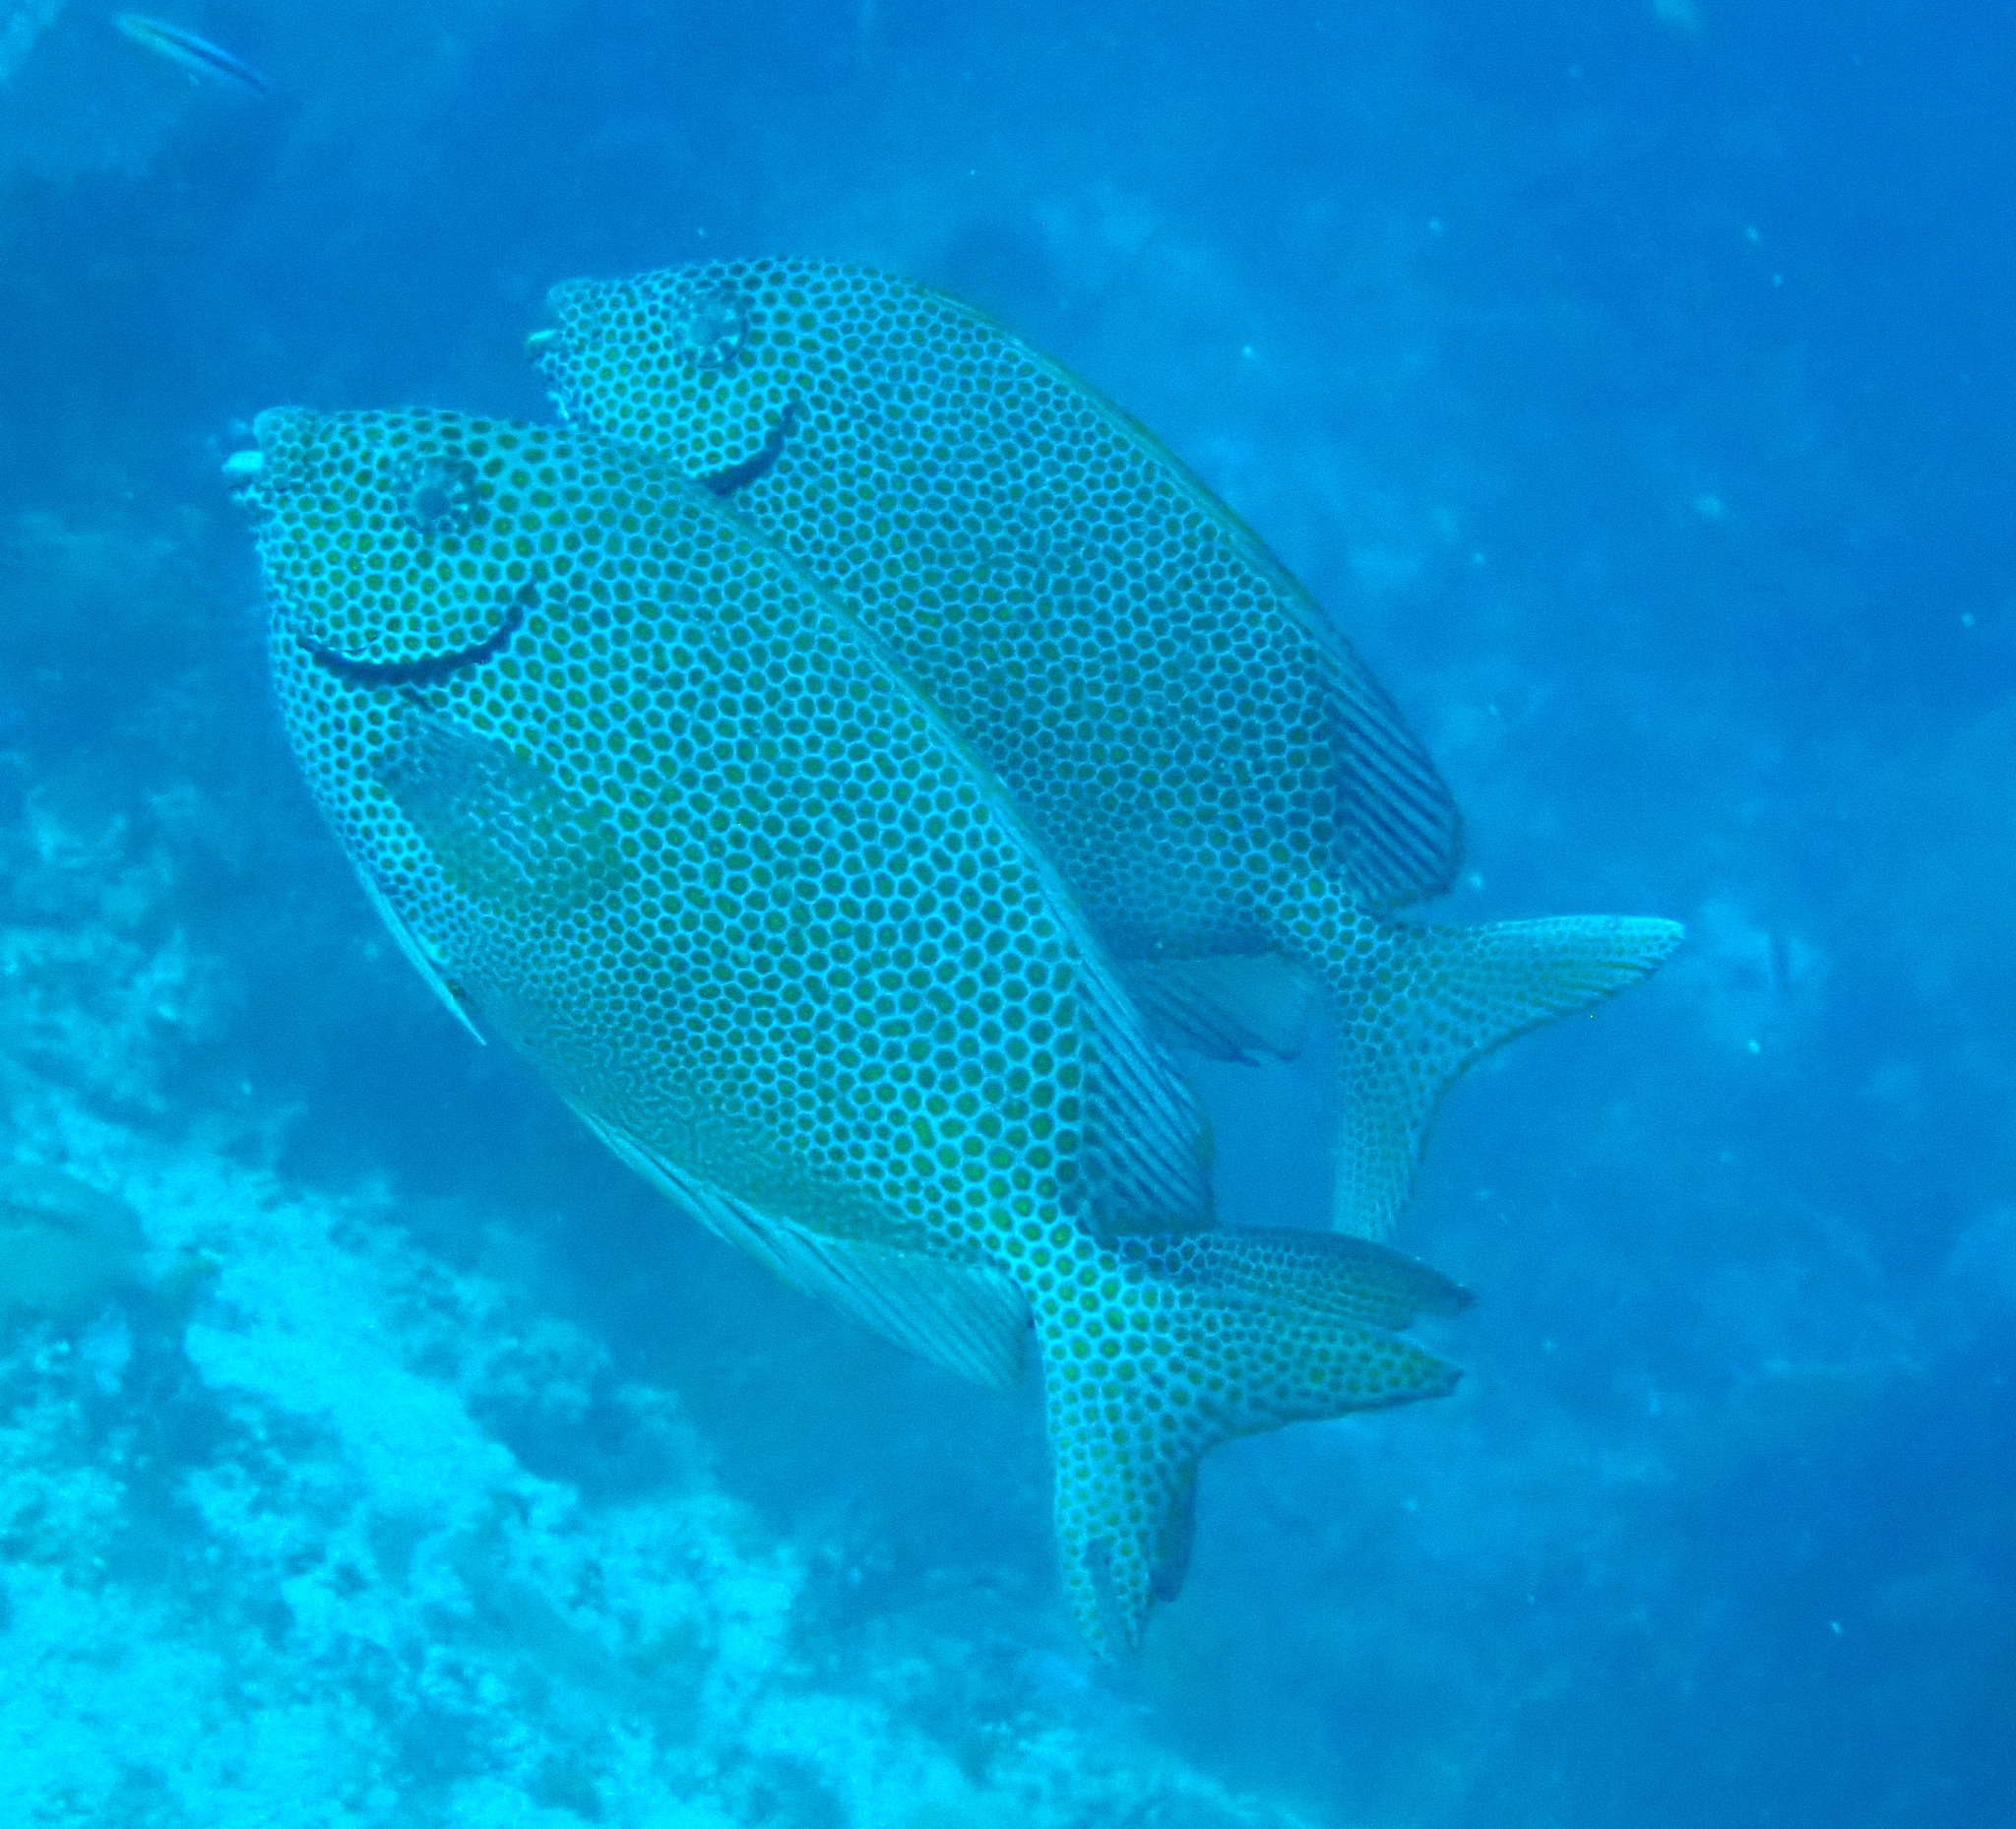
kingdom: Animalia
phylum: Chordata
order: Perciformes
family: Siganidae
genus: Siganus
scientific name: Siganus punctatus
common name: Gold-spotted rabbitfish
